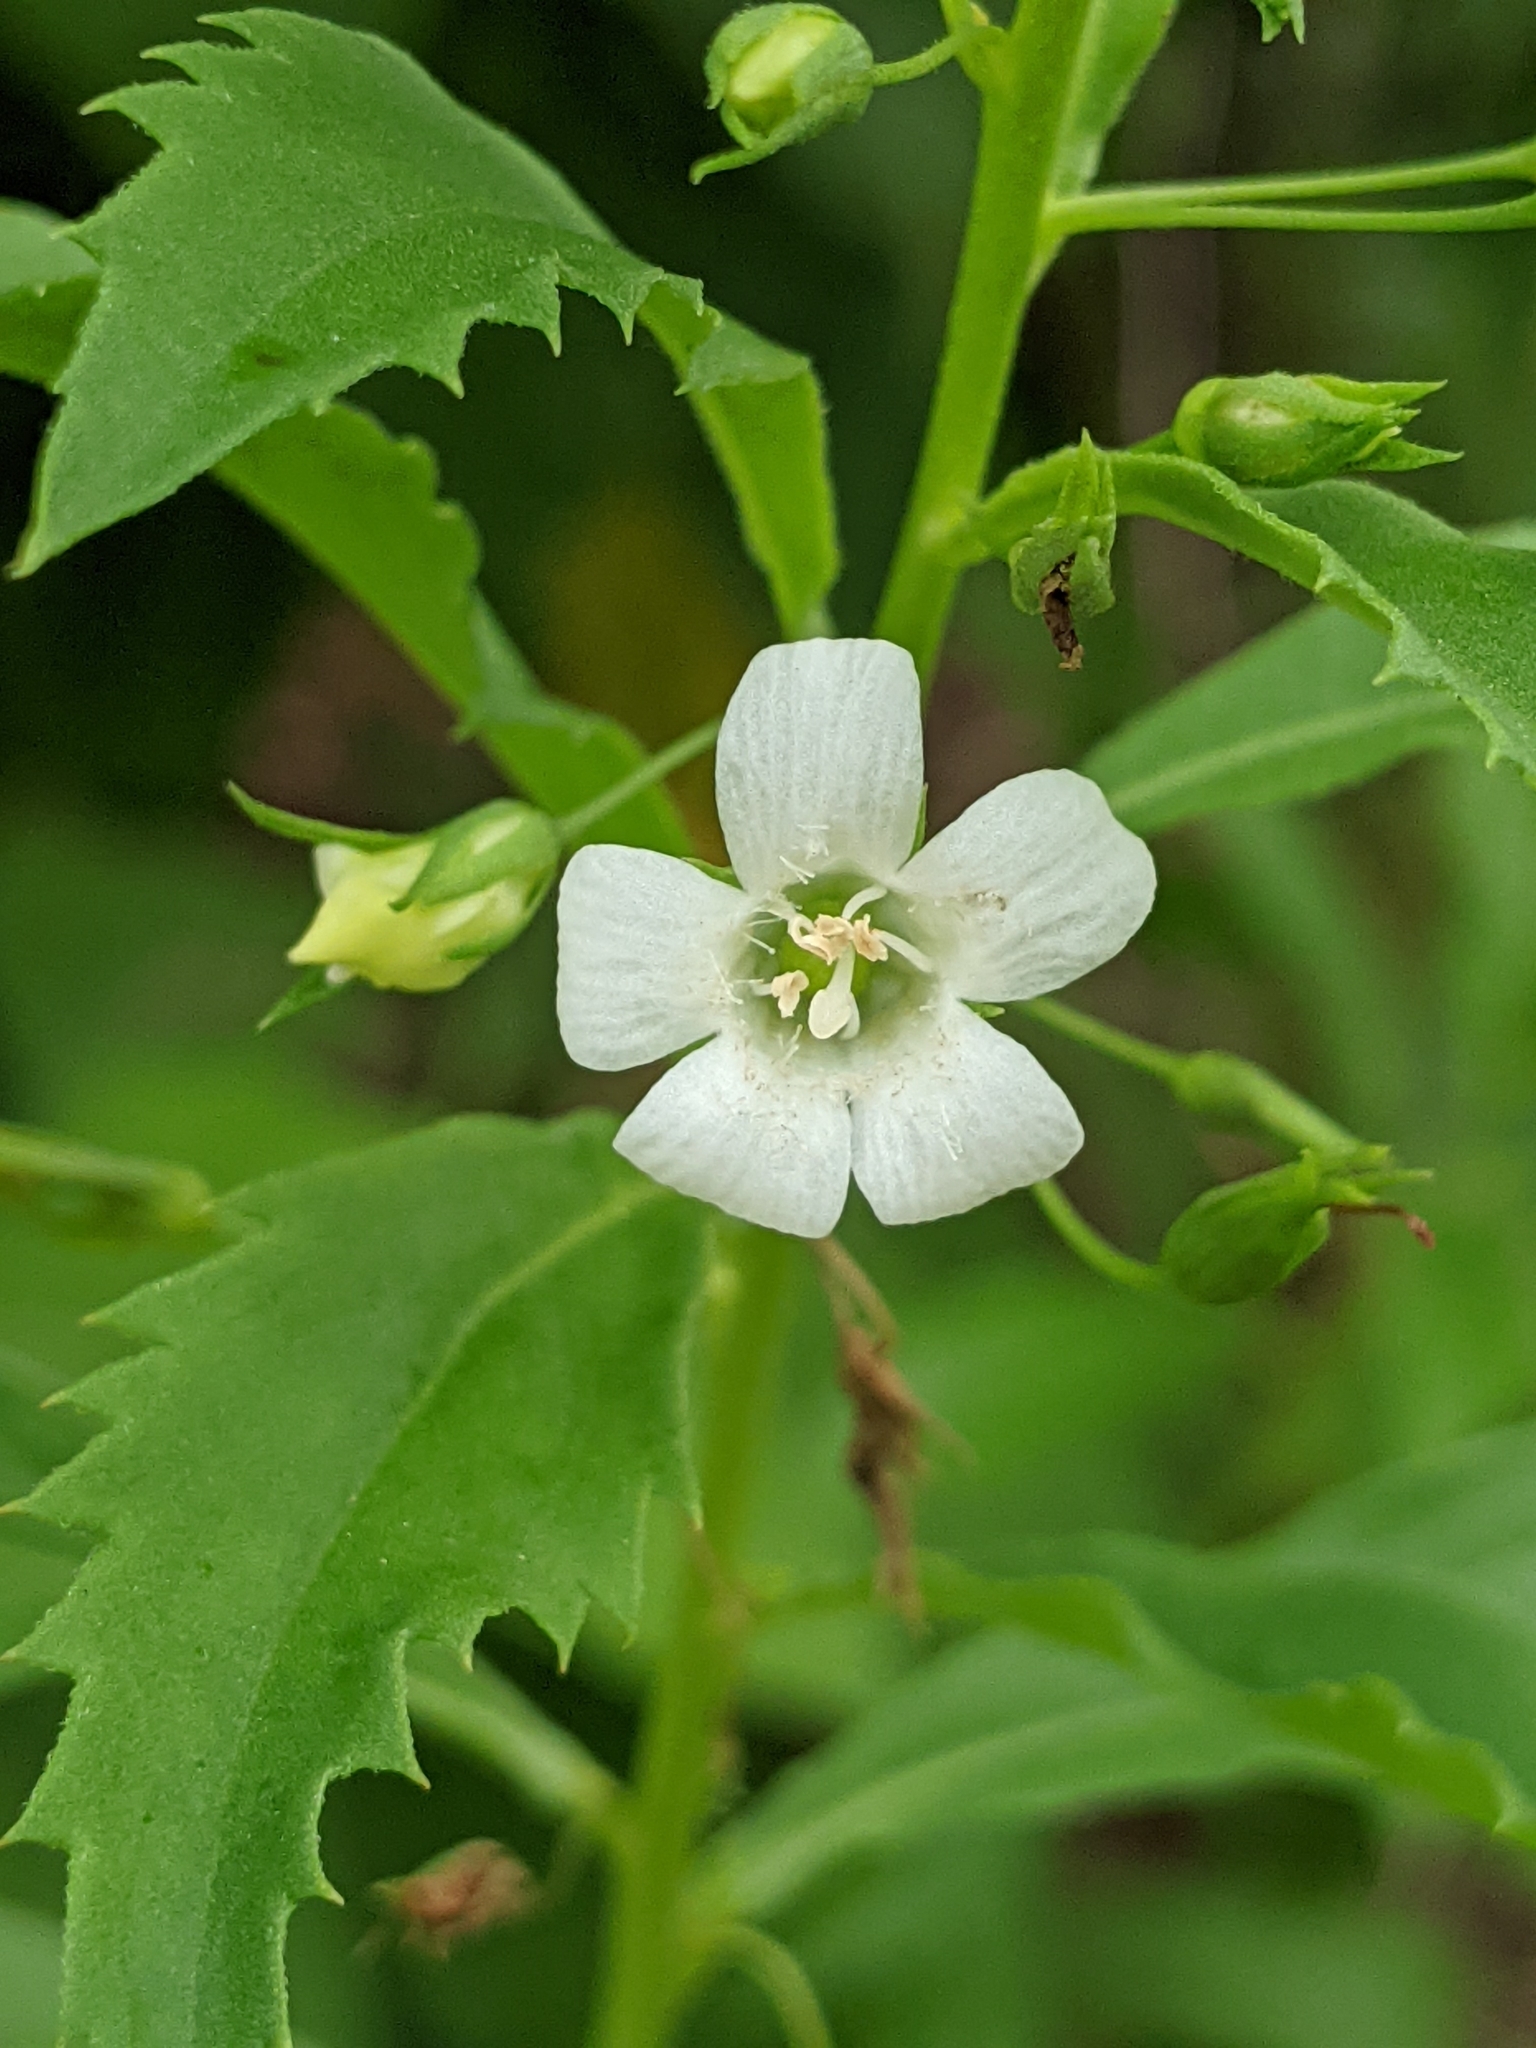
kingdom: Plantae
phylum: Tracheophyta
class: Magnoliopsida
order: Lamiales
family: Scrophulariaceae
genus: Capraria
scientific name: Capraria biflora
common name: Goatweed
